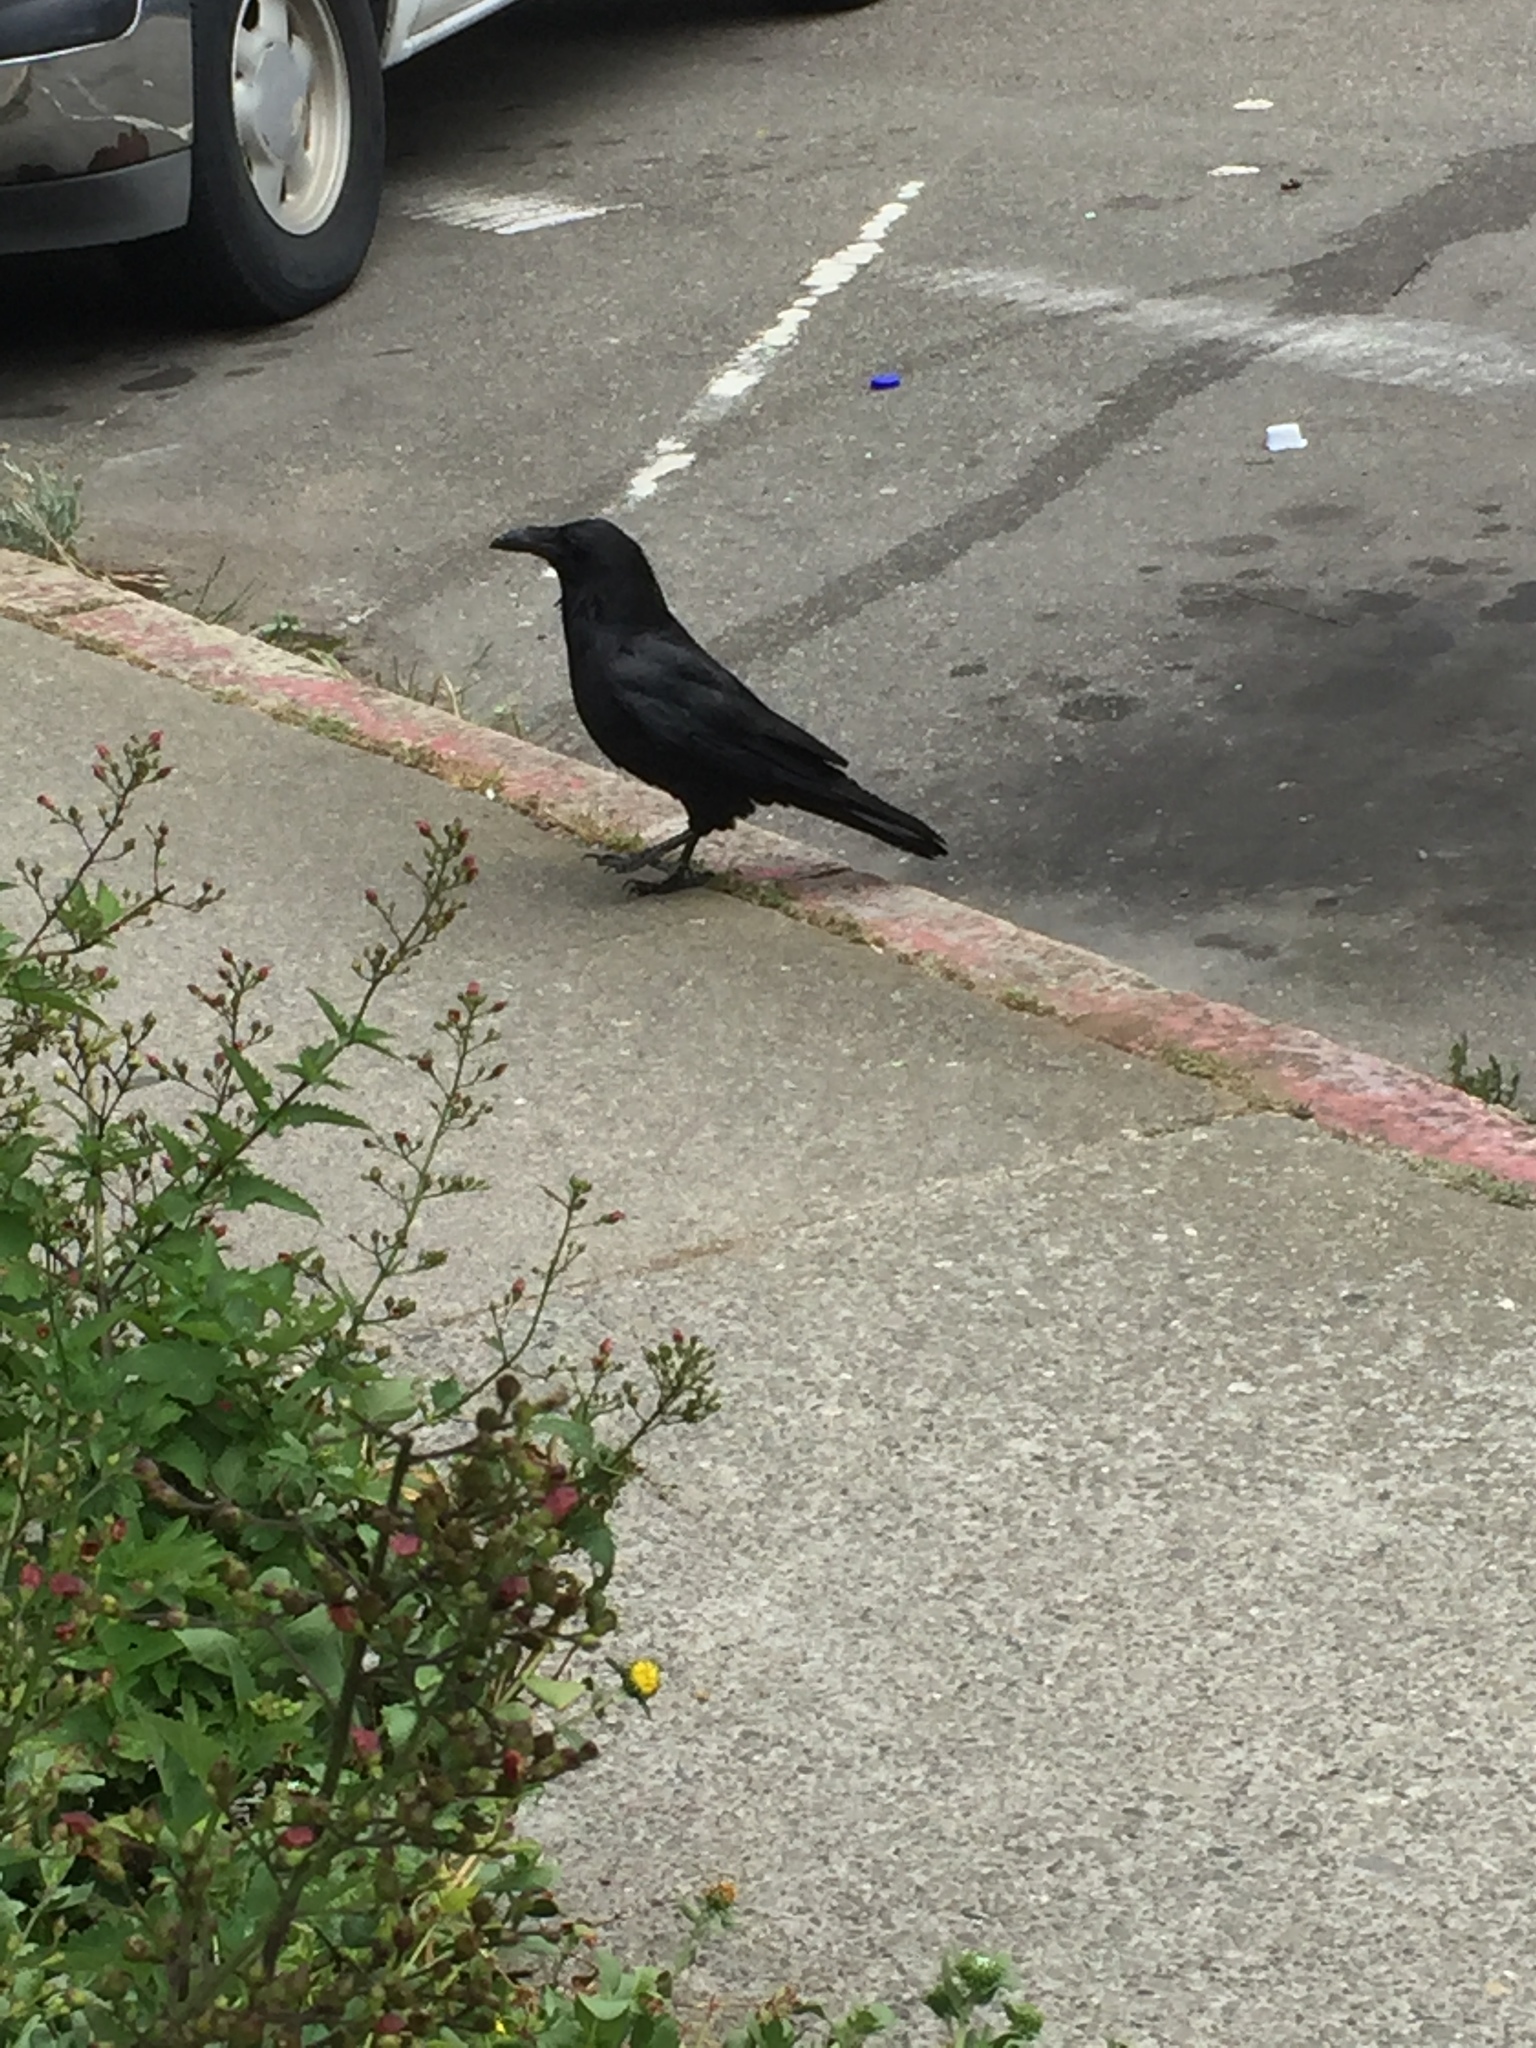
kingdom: Animalia
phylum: Chordata
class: Aves
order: Passeriformes
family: Corvidae
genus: Corvus
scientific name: Corvus corax
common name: Common raven
